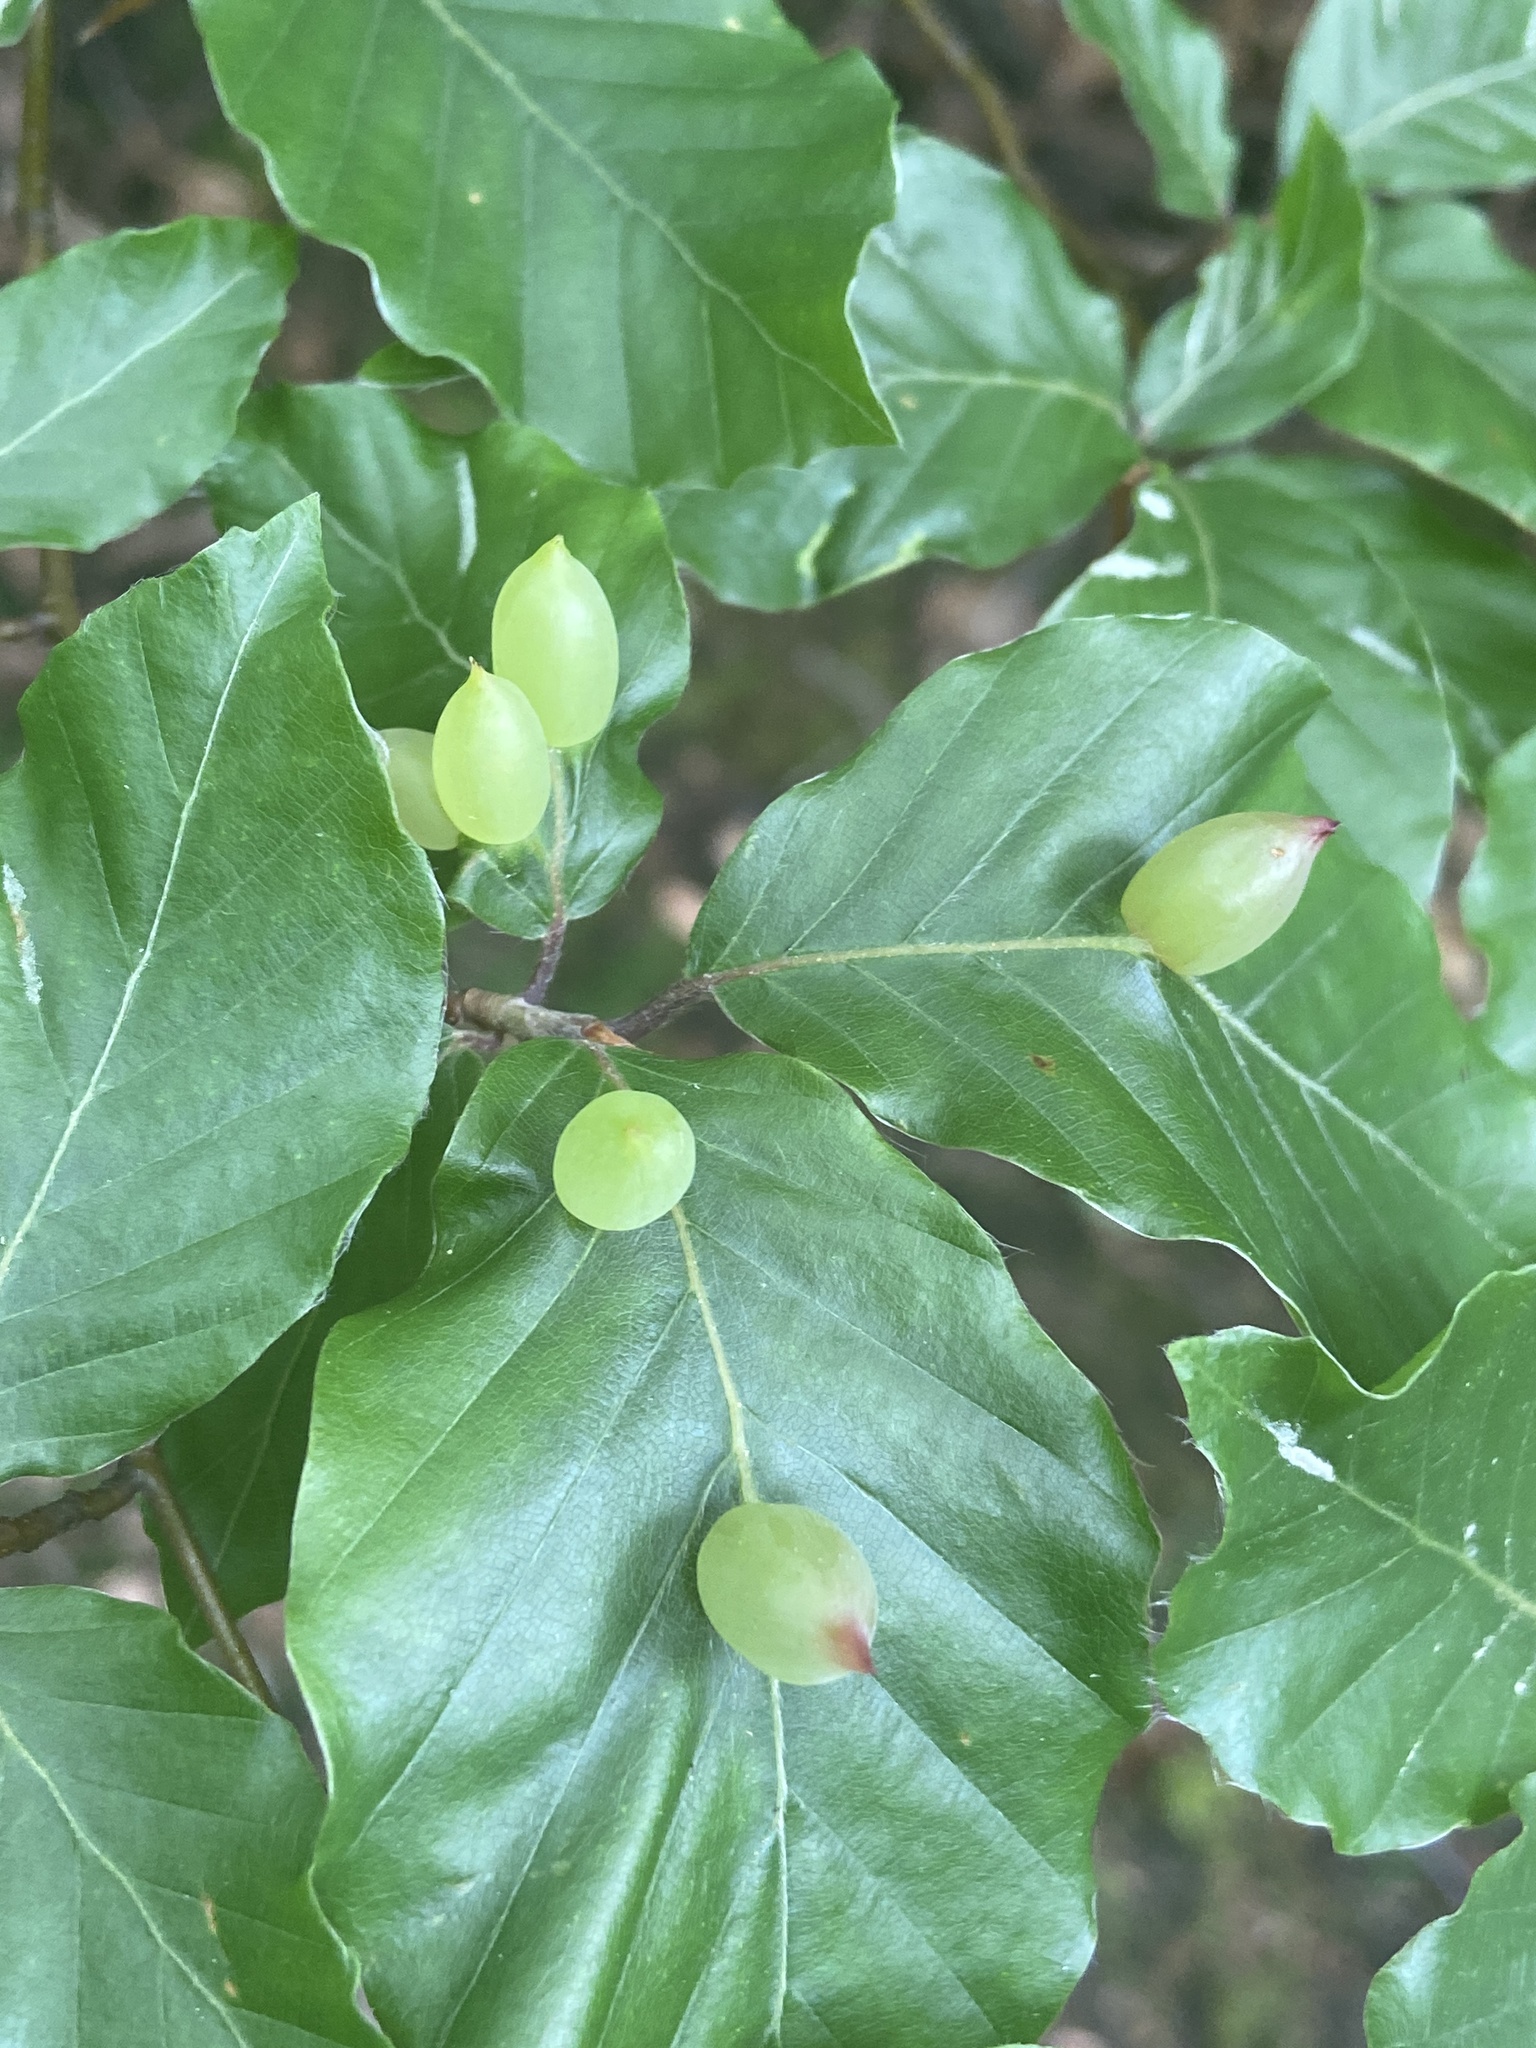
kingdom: Animalia
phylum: Arthropoda
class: Insecta
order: Diptera
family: Cecidomyiidae
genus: Mikiola
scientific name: Mikiola fagi
